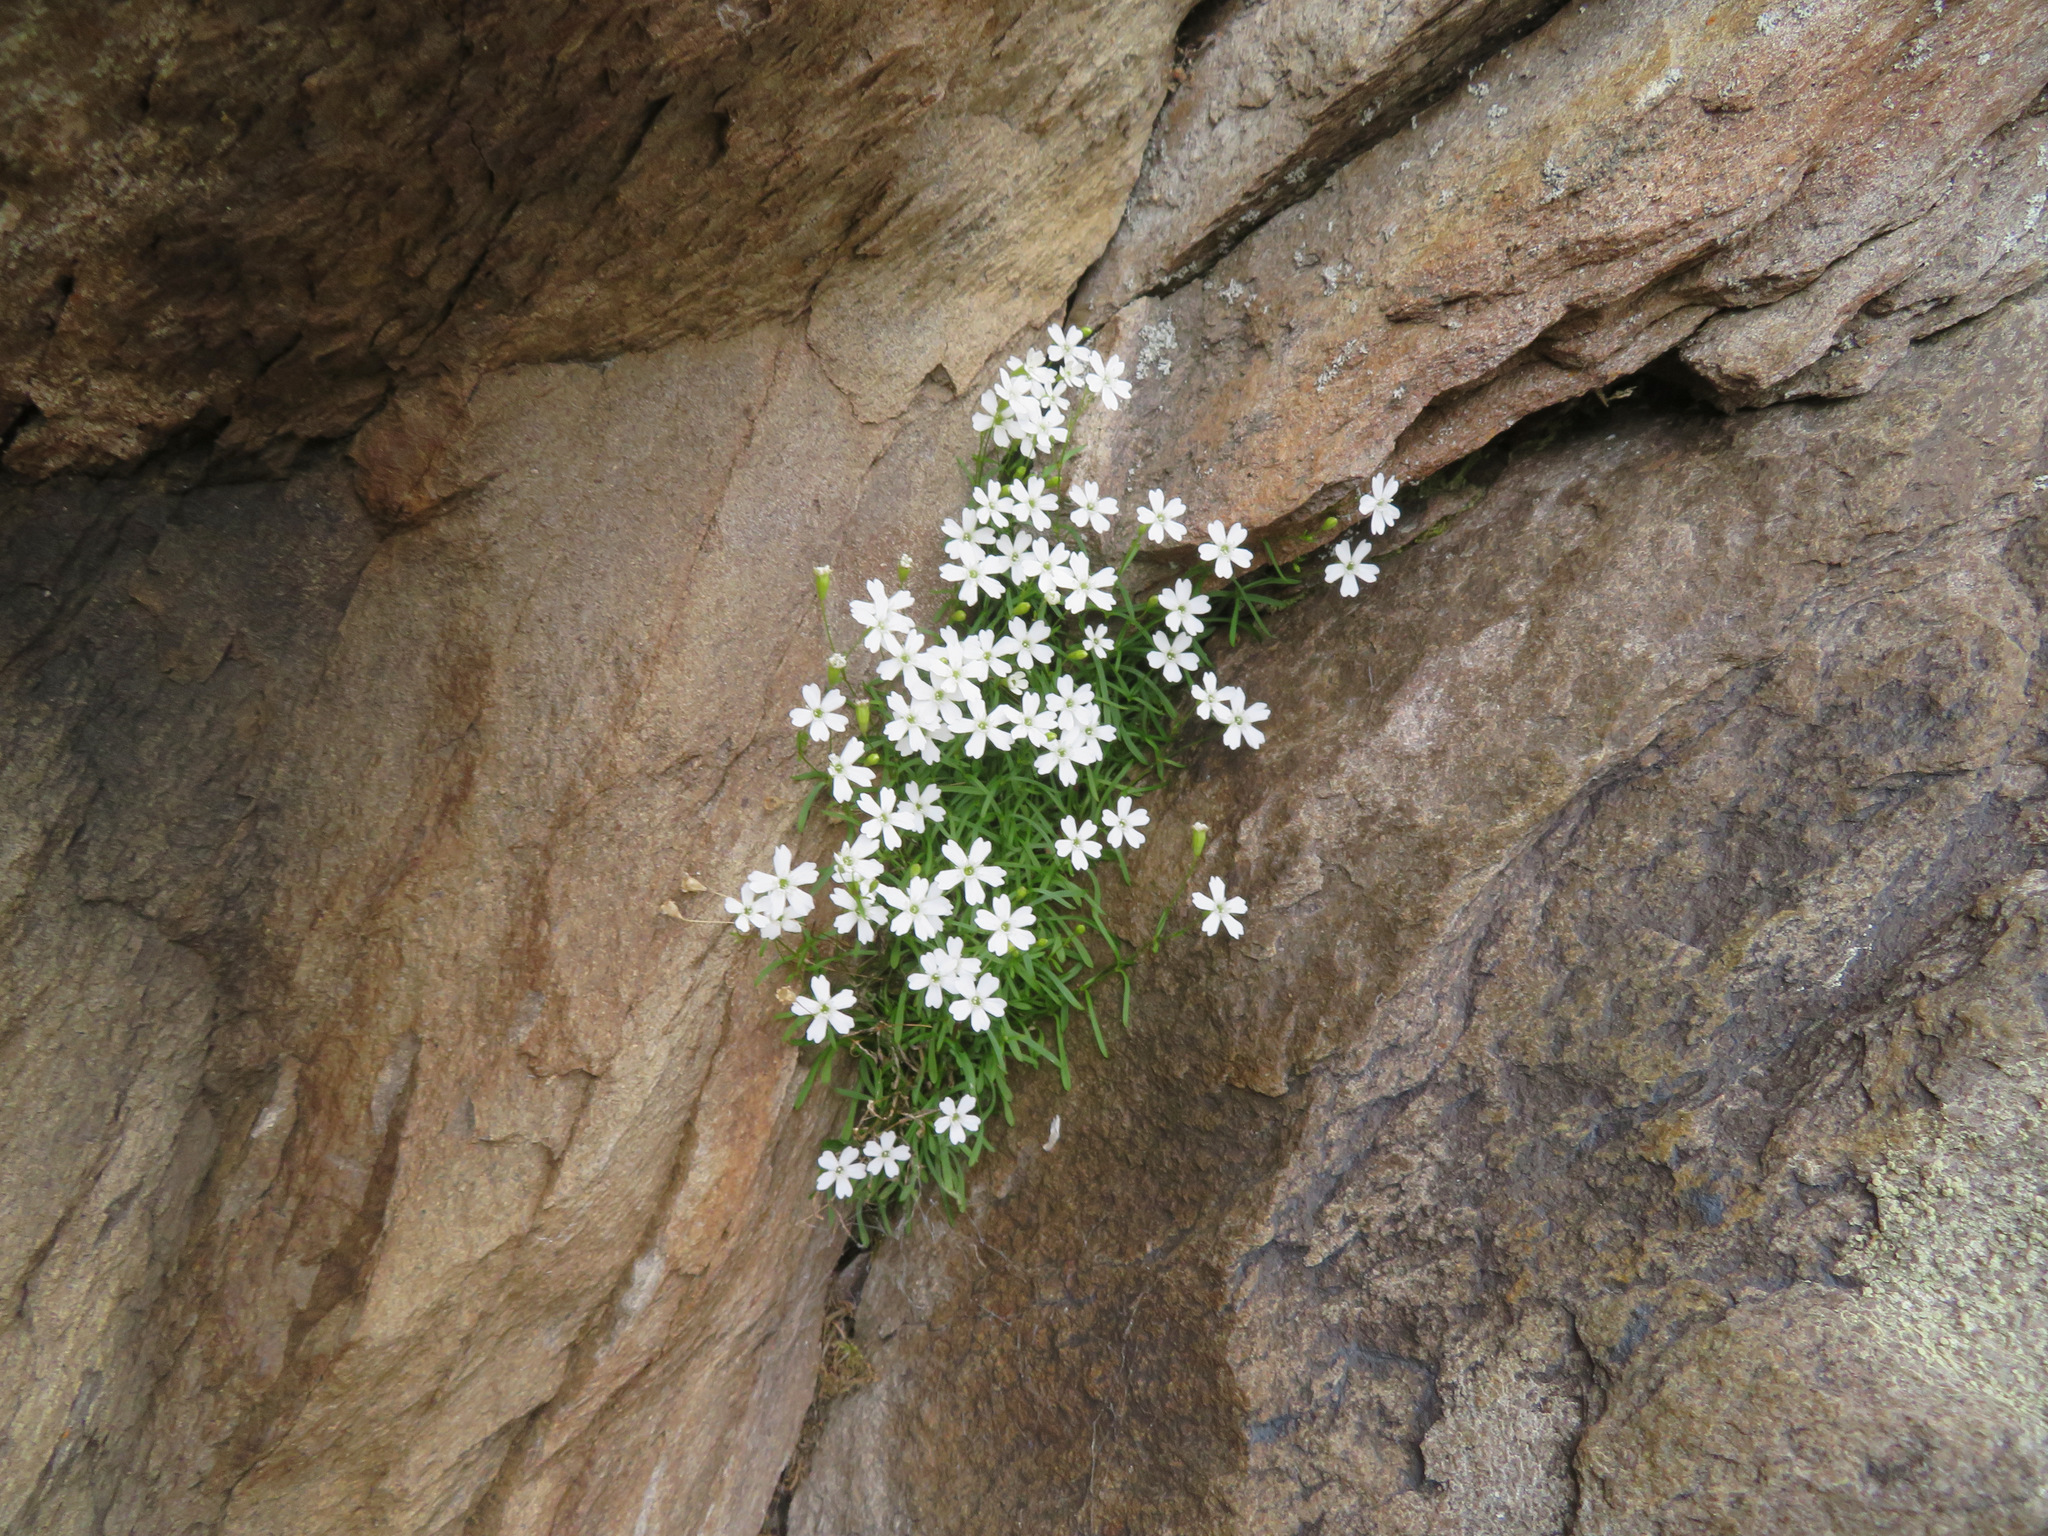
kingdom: Plantae
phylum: Tracheophyta
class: Magnoliopsida
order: Caryophyllales
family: Caryophyllaceae
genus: Heliosperma
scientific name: Heliosperma pusillum
